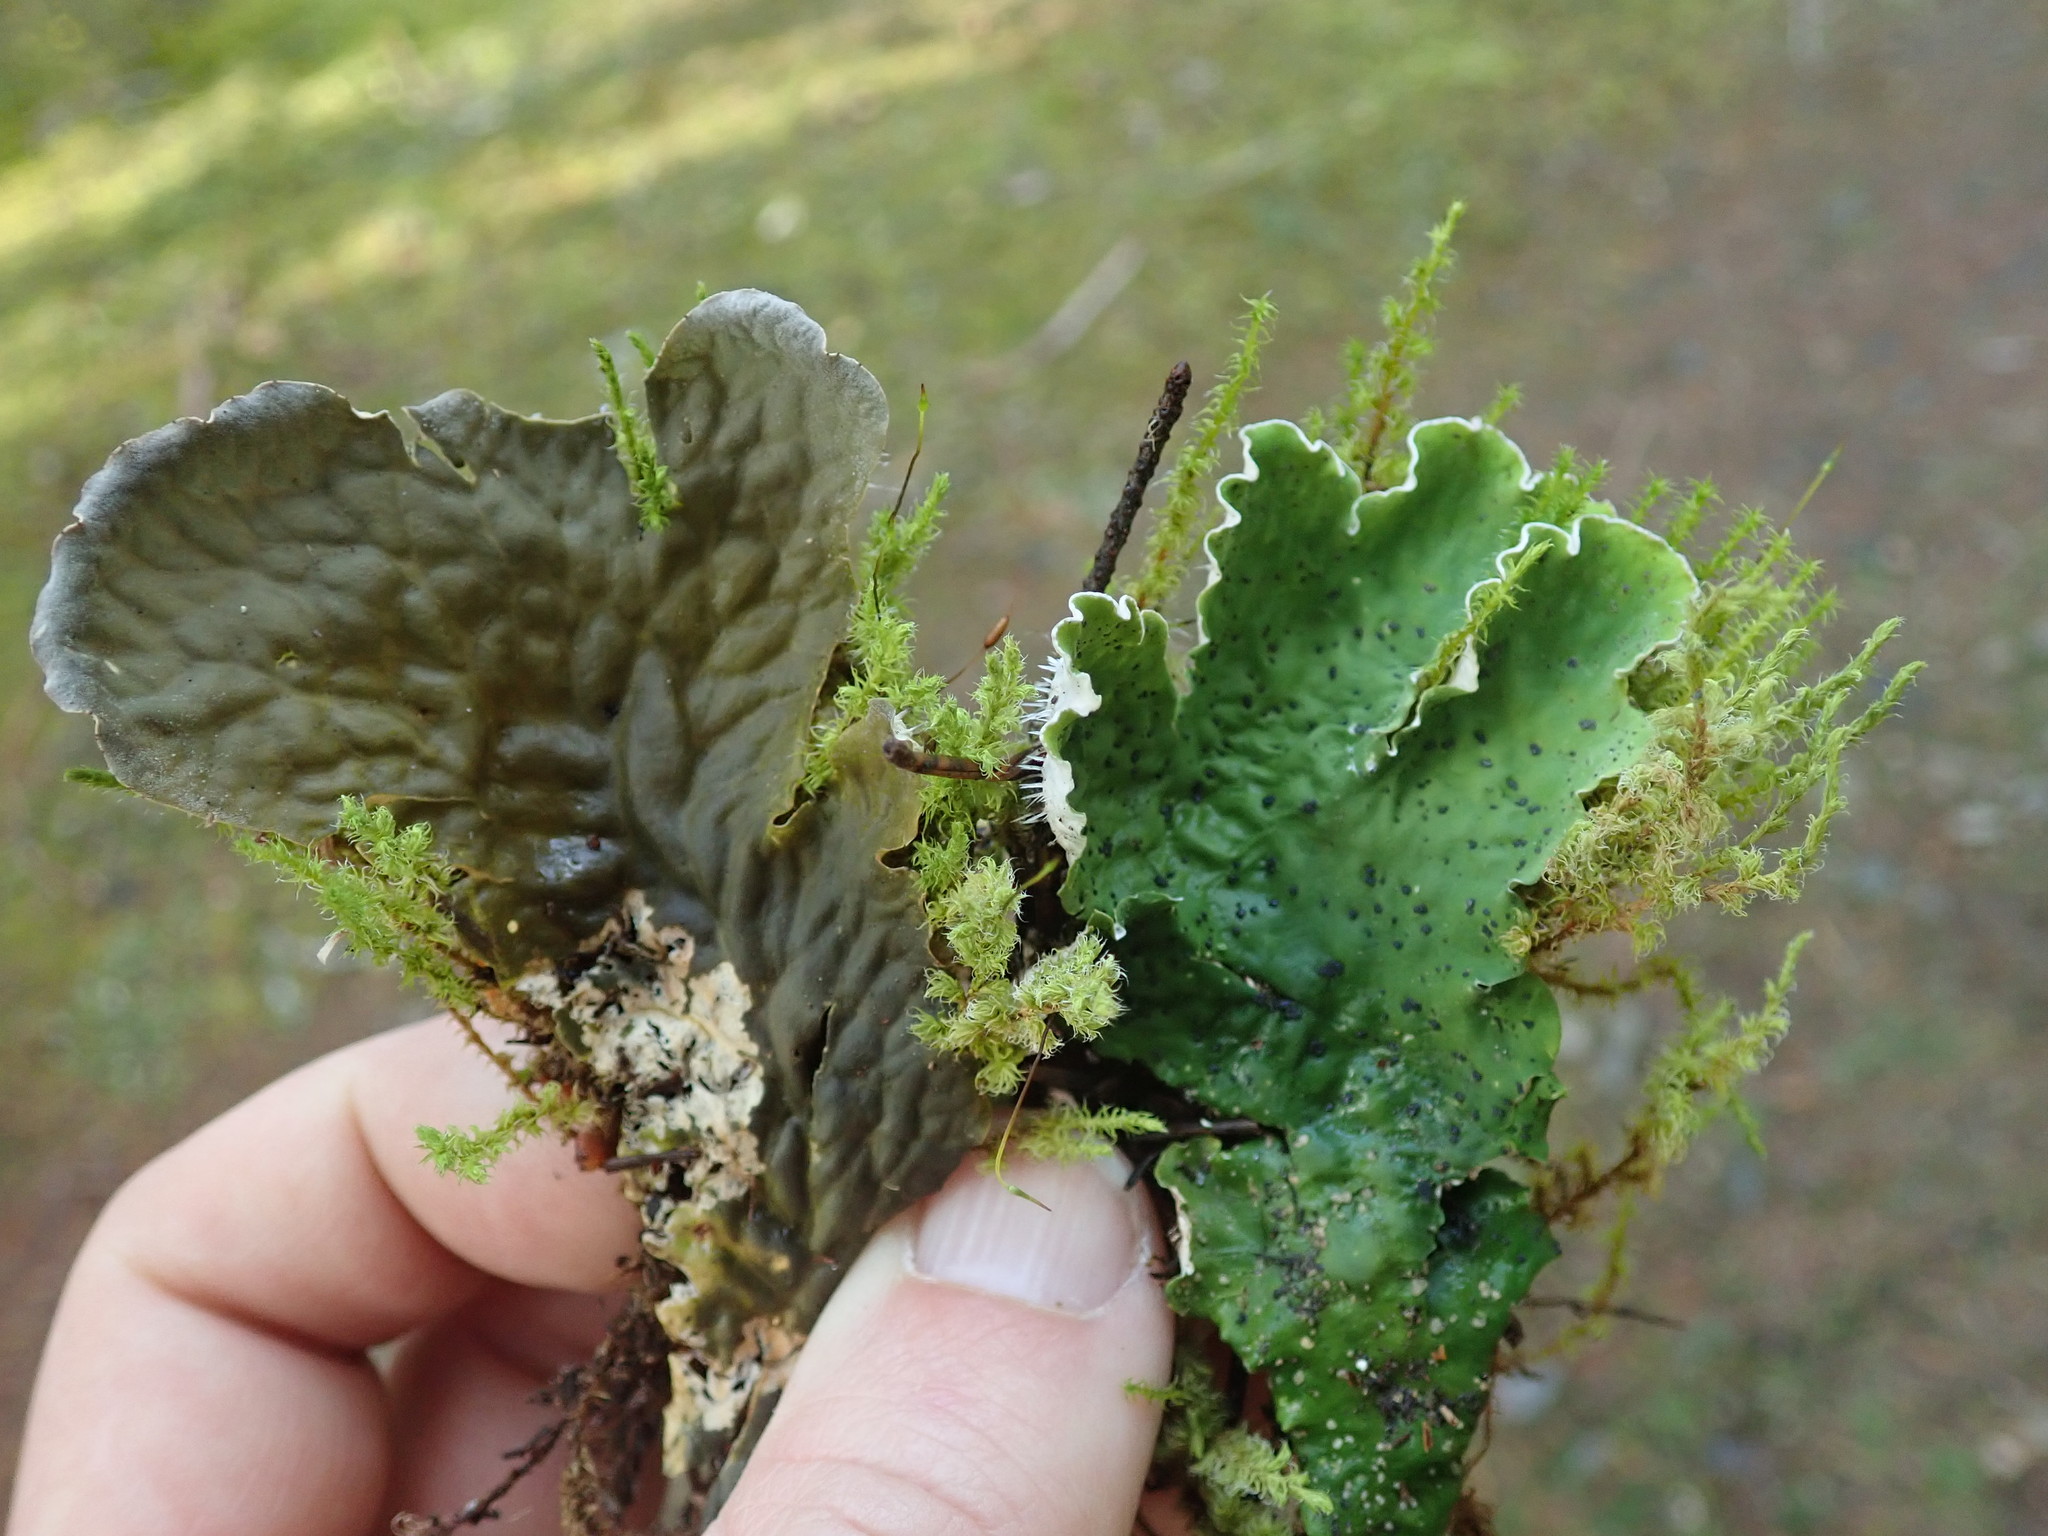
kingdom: Fungi
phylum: Ascomycota
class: Lecanoromycetes
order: Peltigerales
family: Peltigeraceae
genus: Peltigera
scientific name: Peltigera aphthosa
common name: Common freckle pelt lichen
